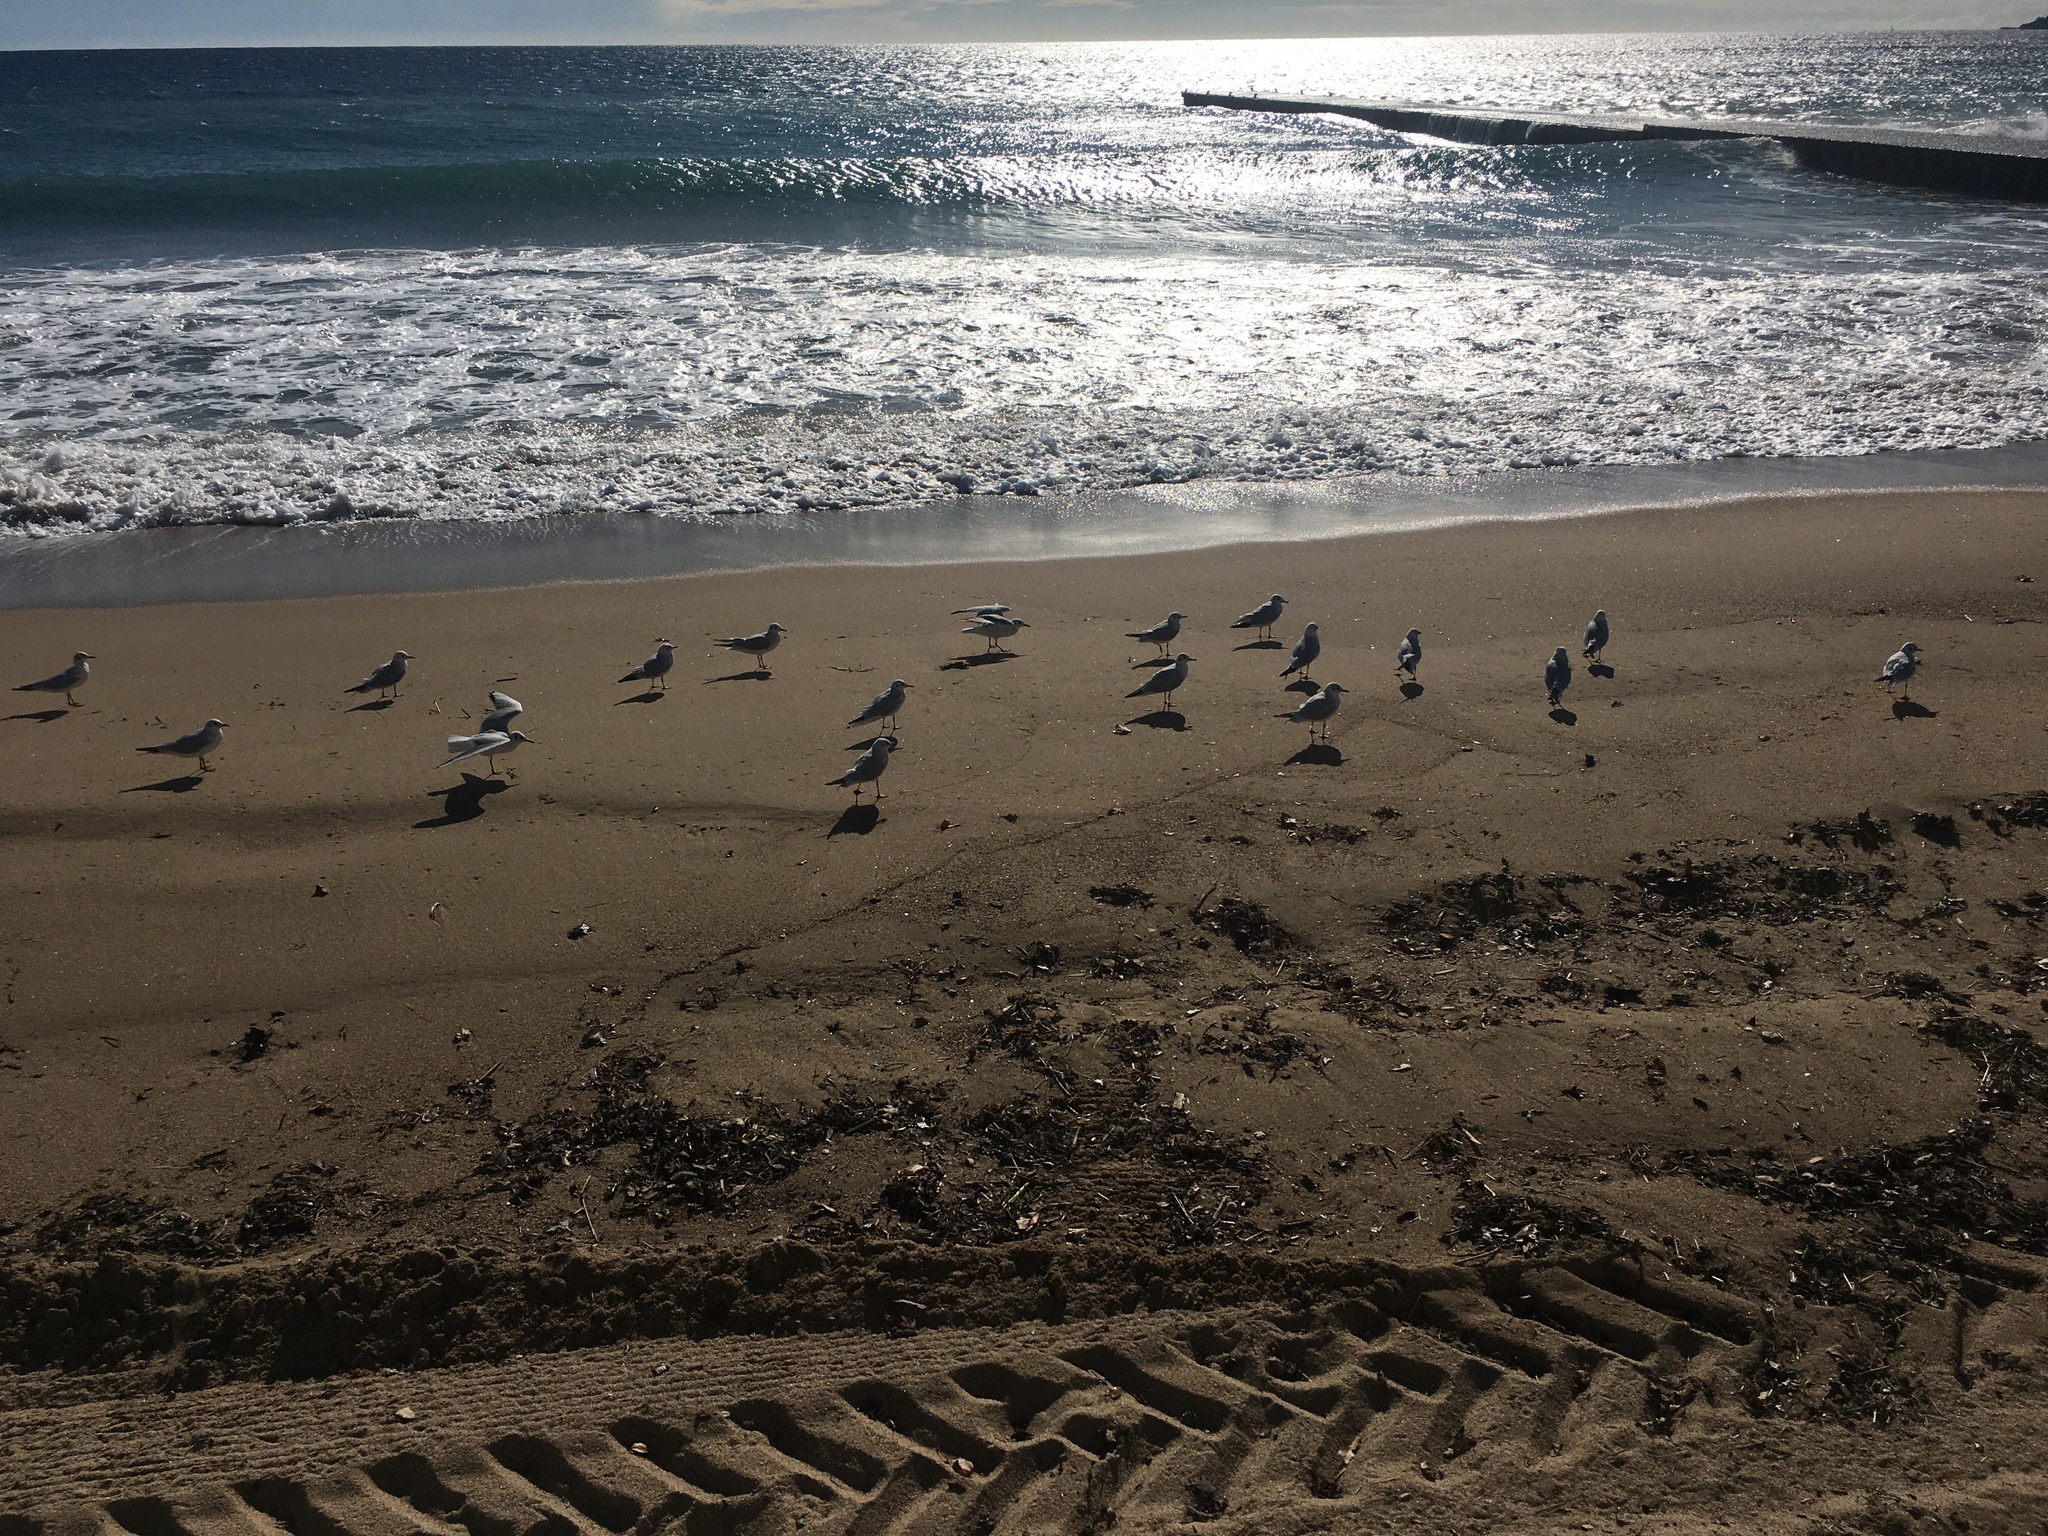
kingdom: Animalia
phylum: Chordata
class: Aves
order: Charadriiformes
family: Laridae
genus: Chroicocephalus
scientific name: Chroicocephalus ridibundus
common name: Black-headed gull
